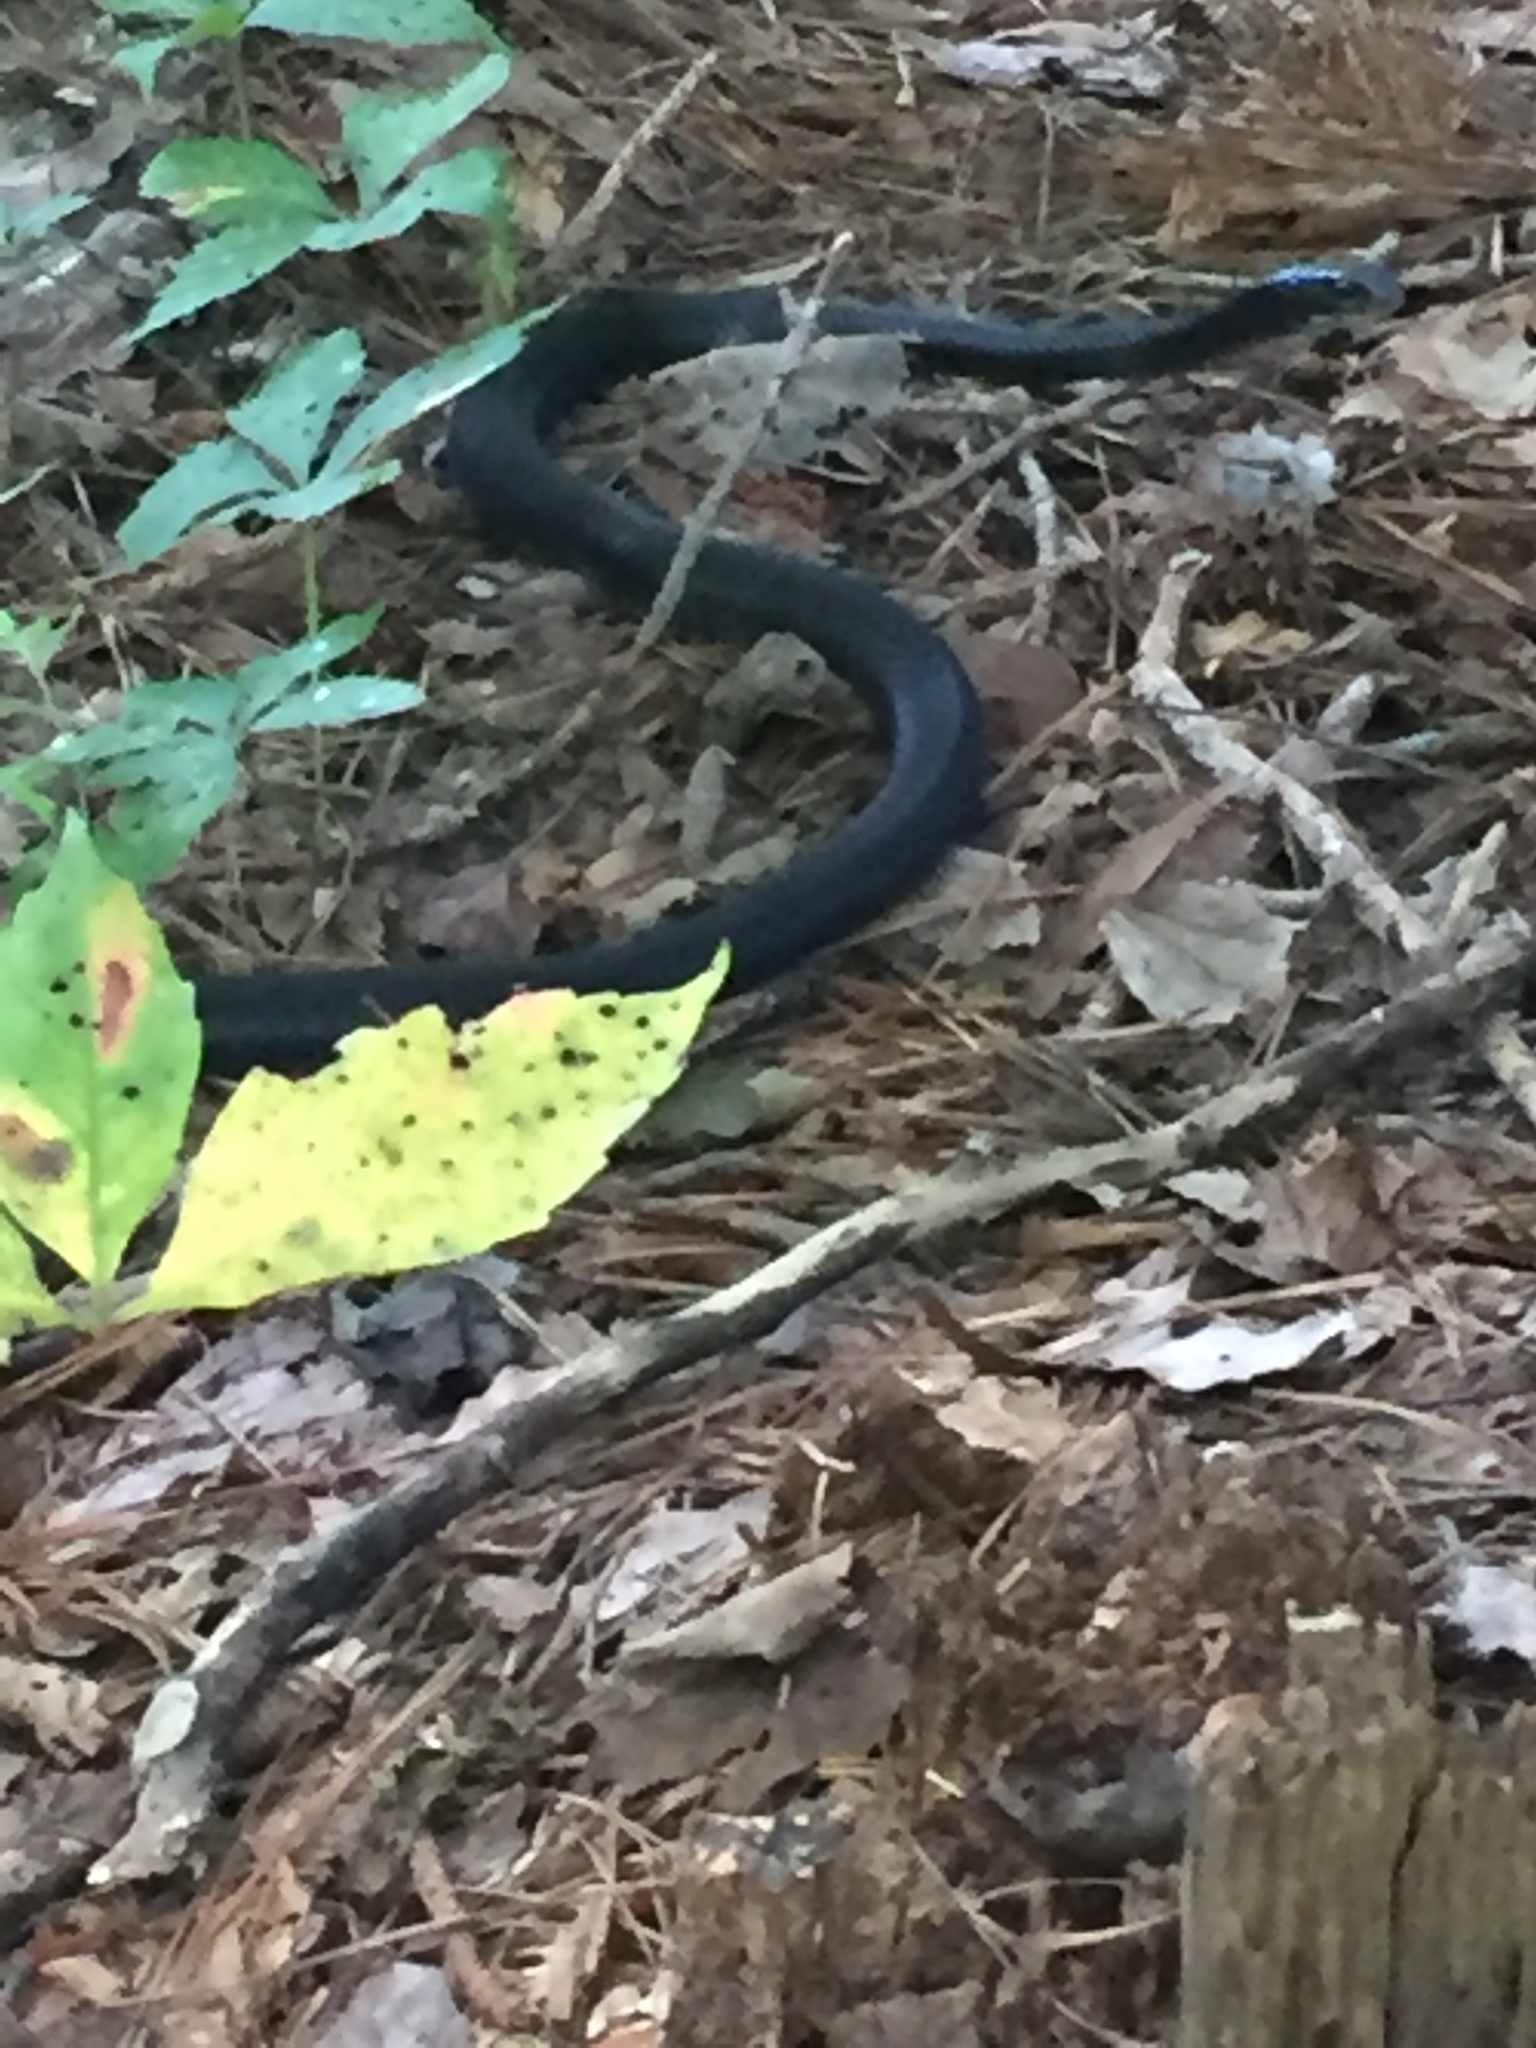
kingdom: Animalia
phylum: Chordata
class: Squamata
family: Colubridae
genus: Coluber
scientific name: Coluber constrictor
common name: Eastern racer
